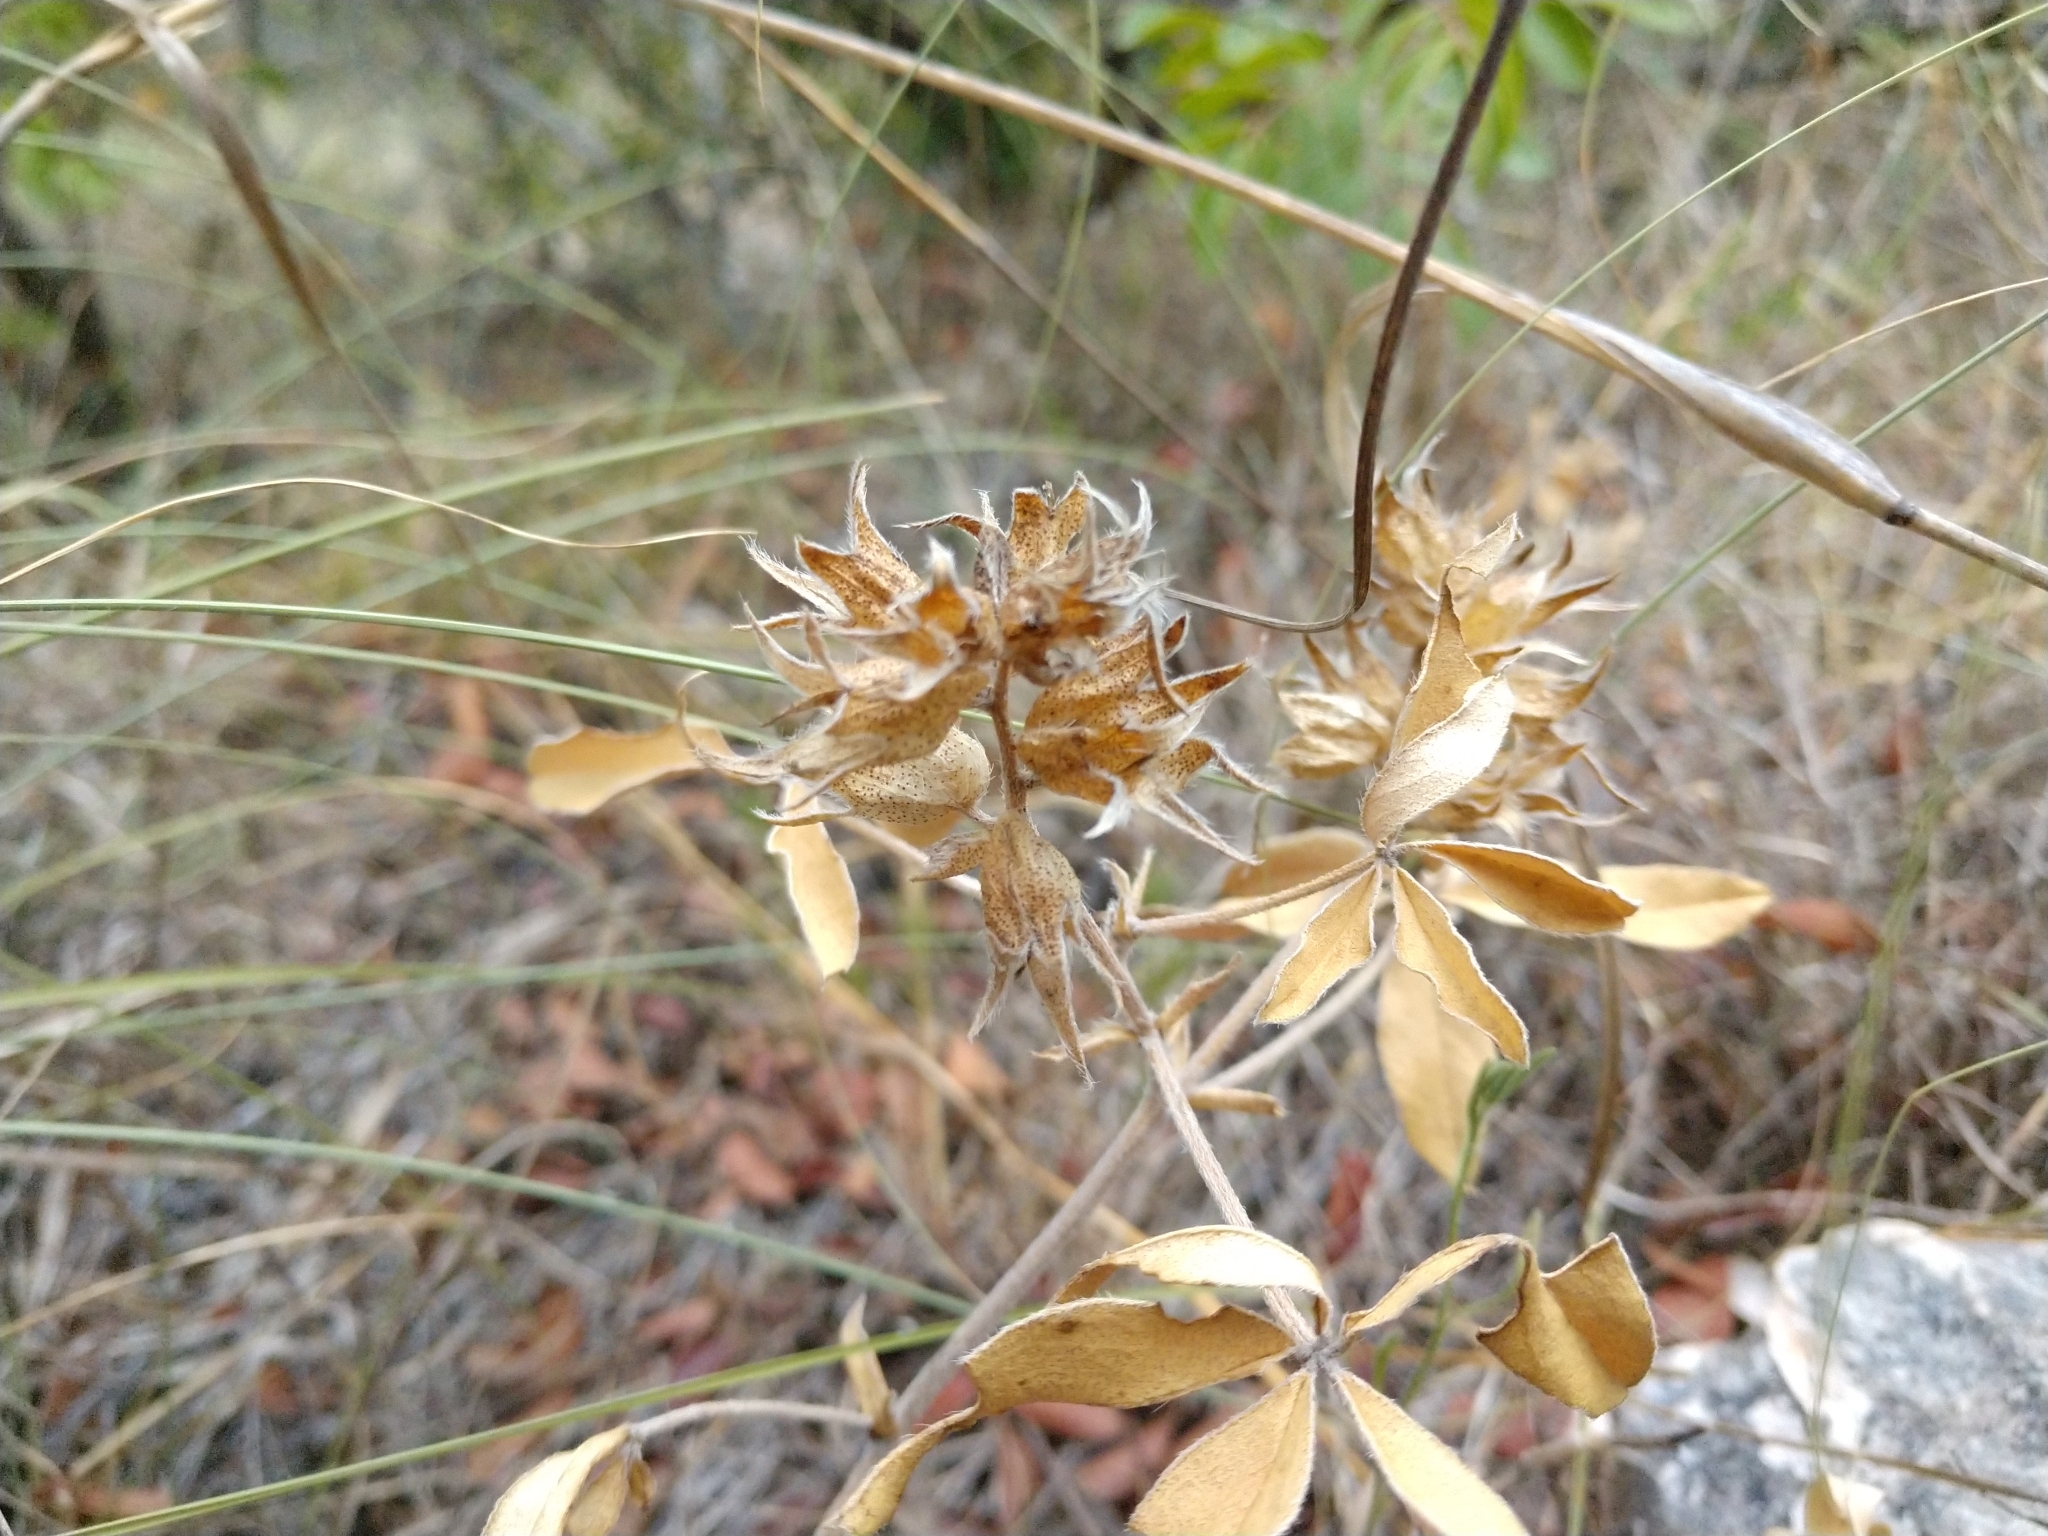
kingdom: Plantae
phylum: Tracheophyta
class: Magnoliopsida
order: Fabales
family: Fabaceae
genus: Pediomelum
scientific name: Pediomelum latestipulatum
